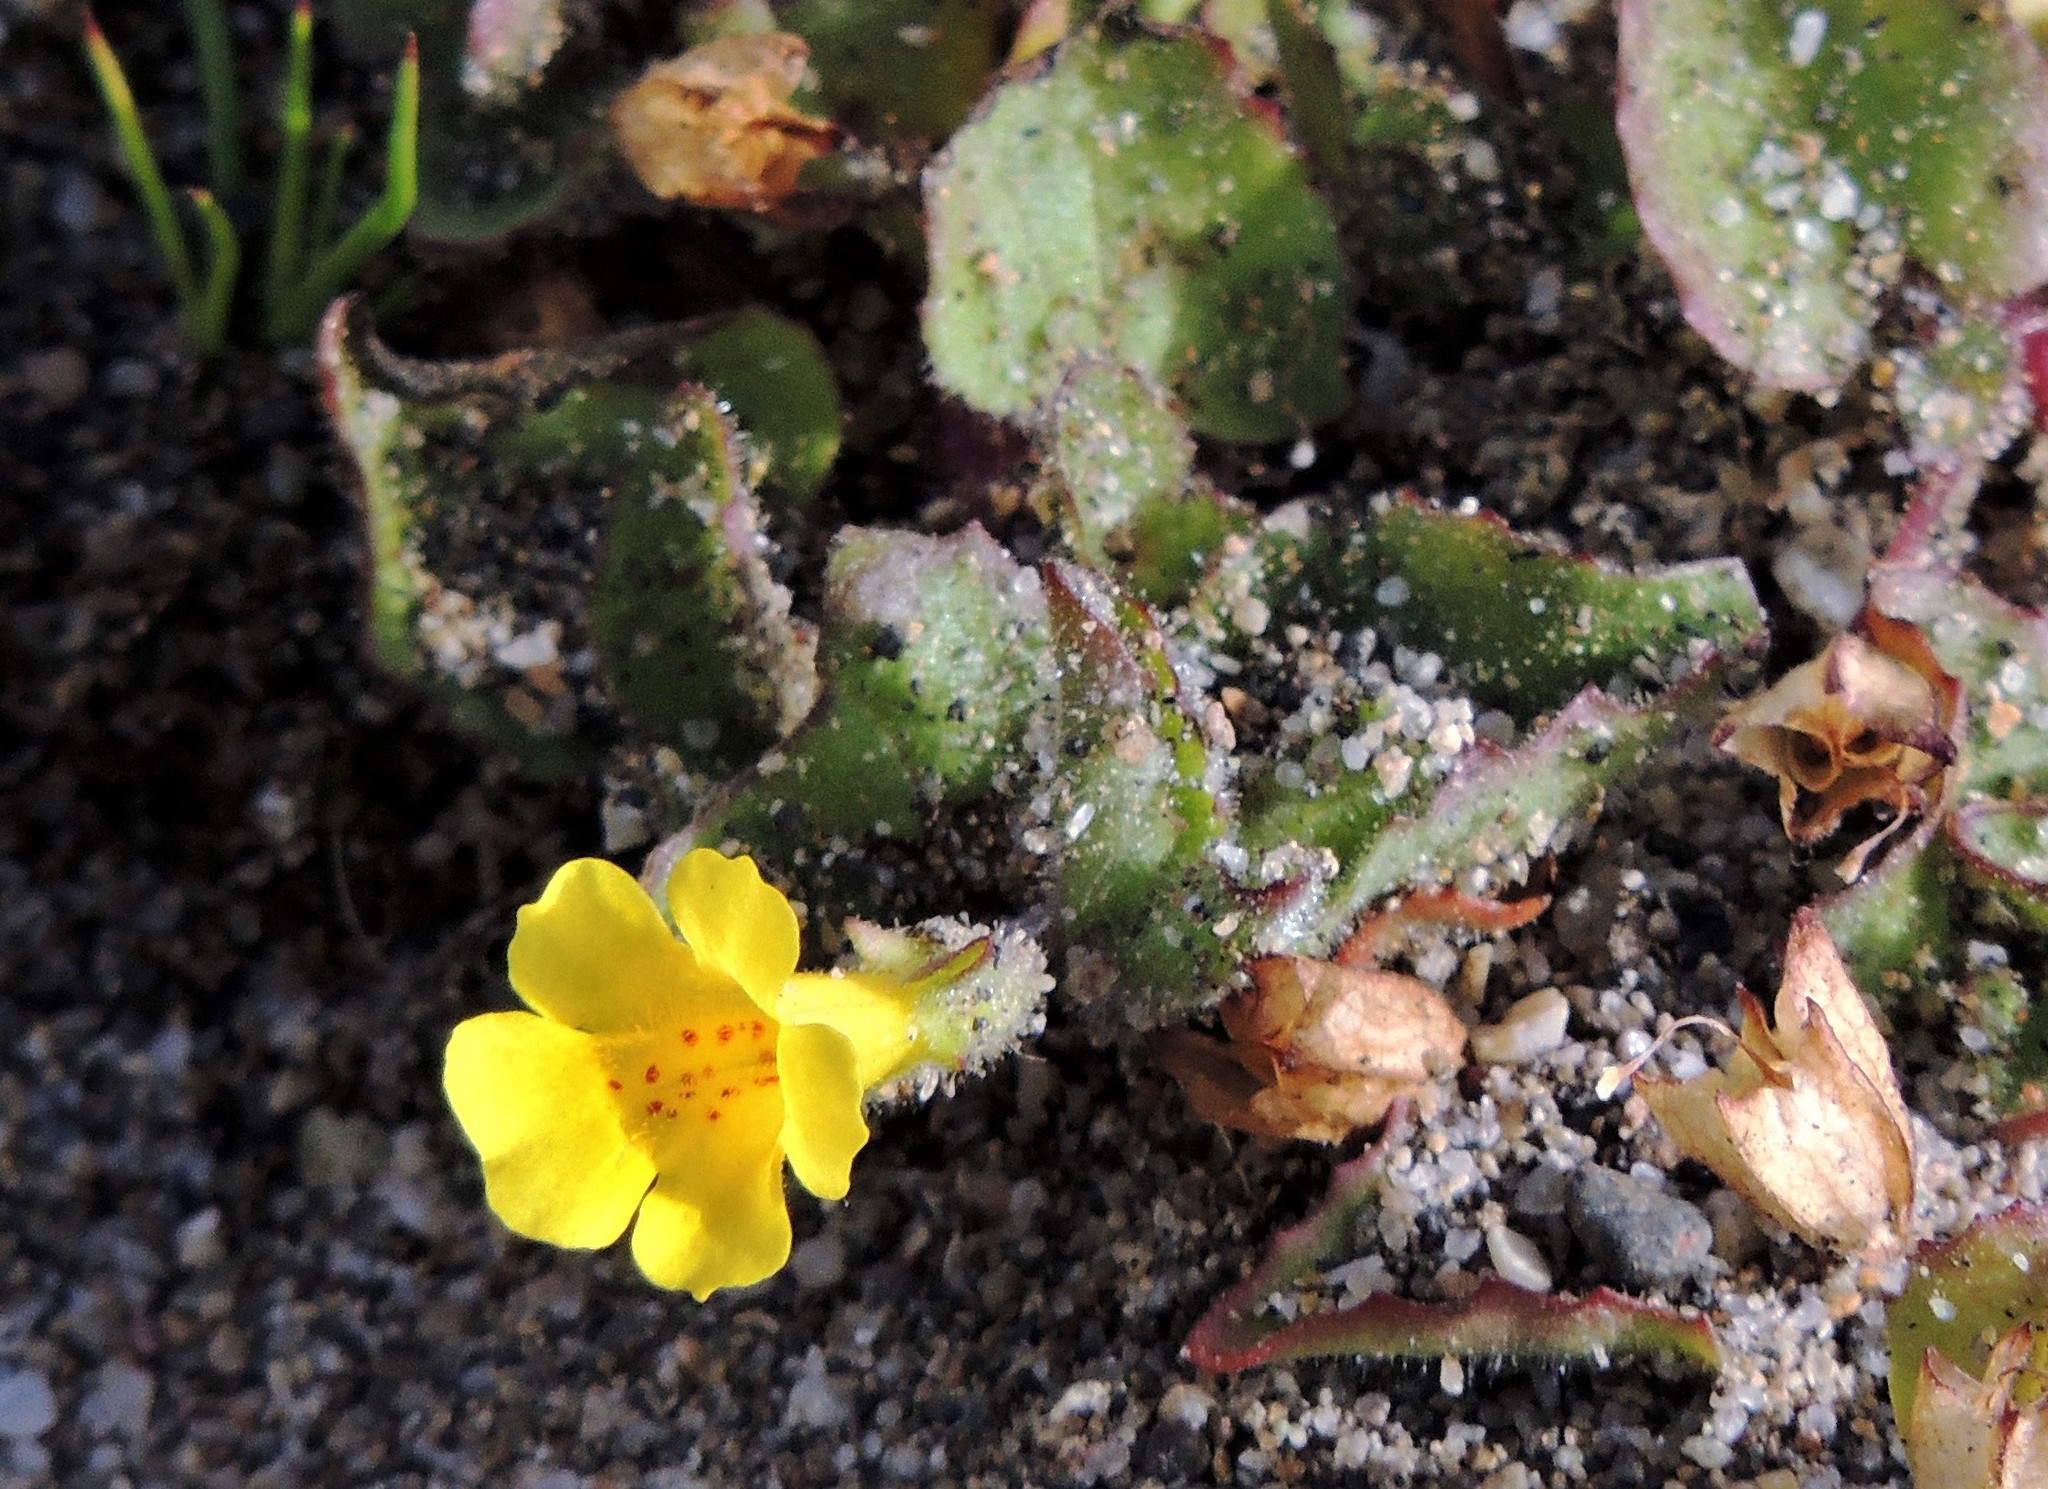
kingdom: Plantae
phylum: Tracheophyta
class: Magnoliopsida
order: Lamiales
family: Phrymaceae
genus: Erythranthe
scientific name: Erythranthe andicola
